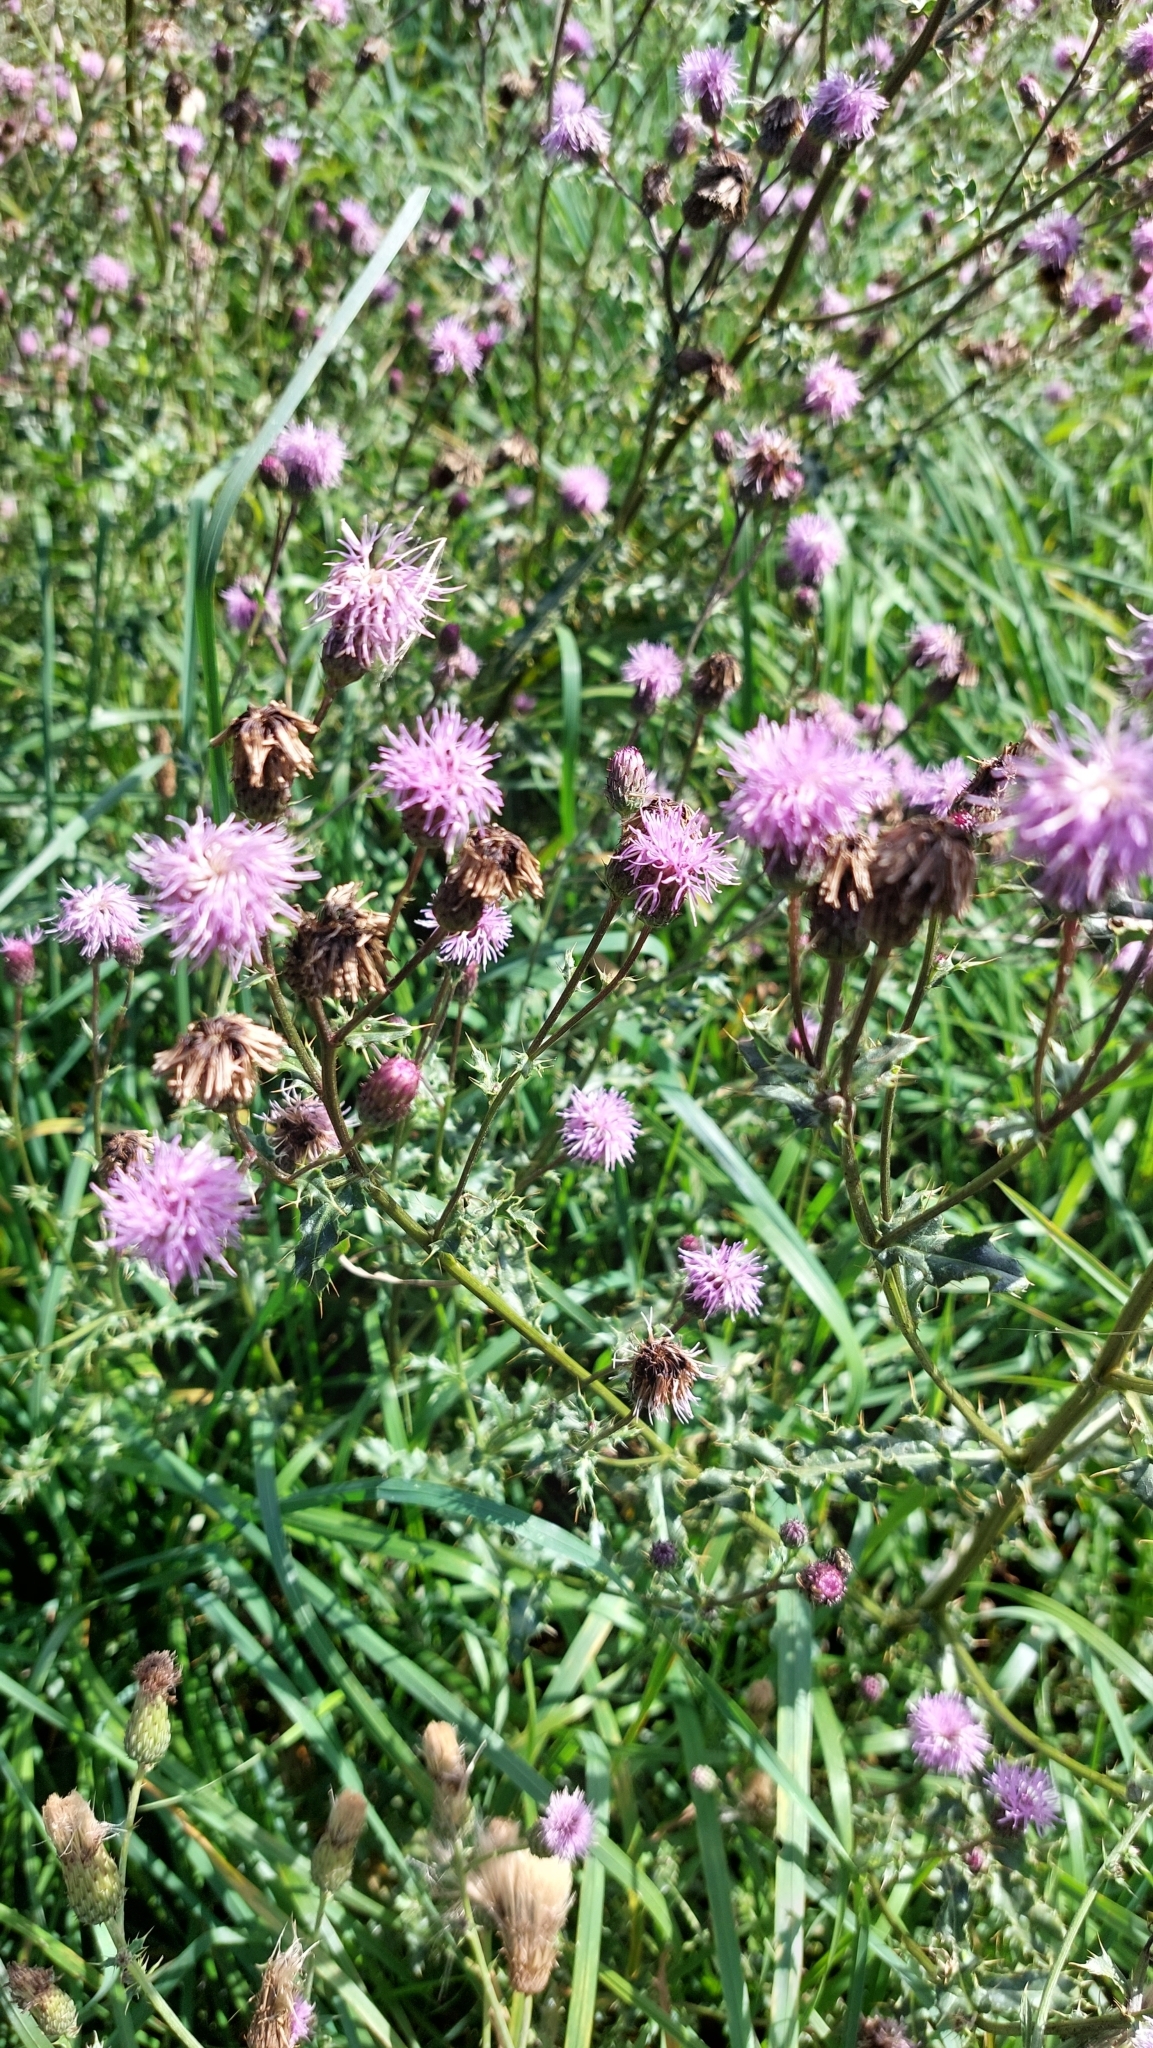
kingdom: Plantae
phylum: Tracheophyta
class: Magnoliopsida
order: Asterales
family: Asteraceae
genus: Cirsium
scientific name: Cirsium arvense
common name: Creeping thistle
